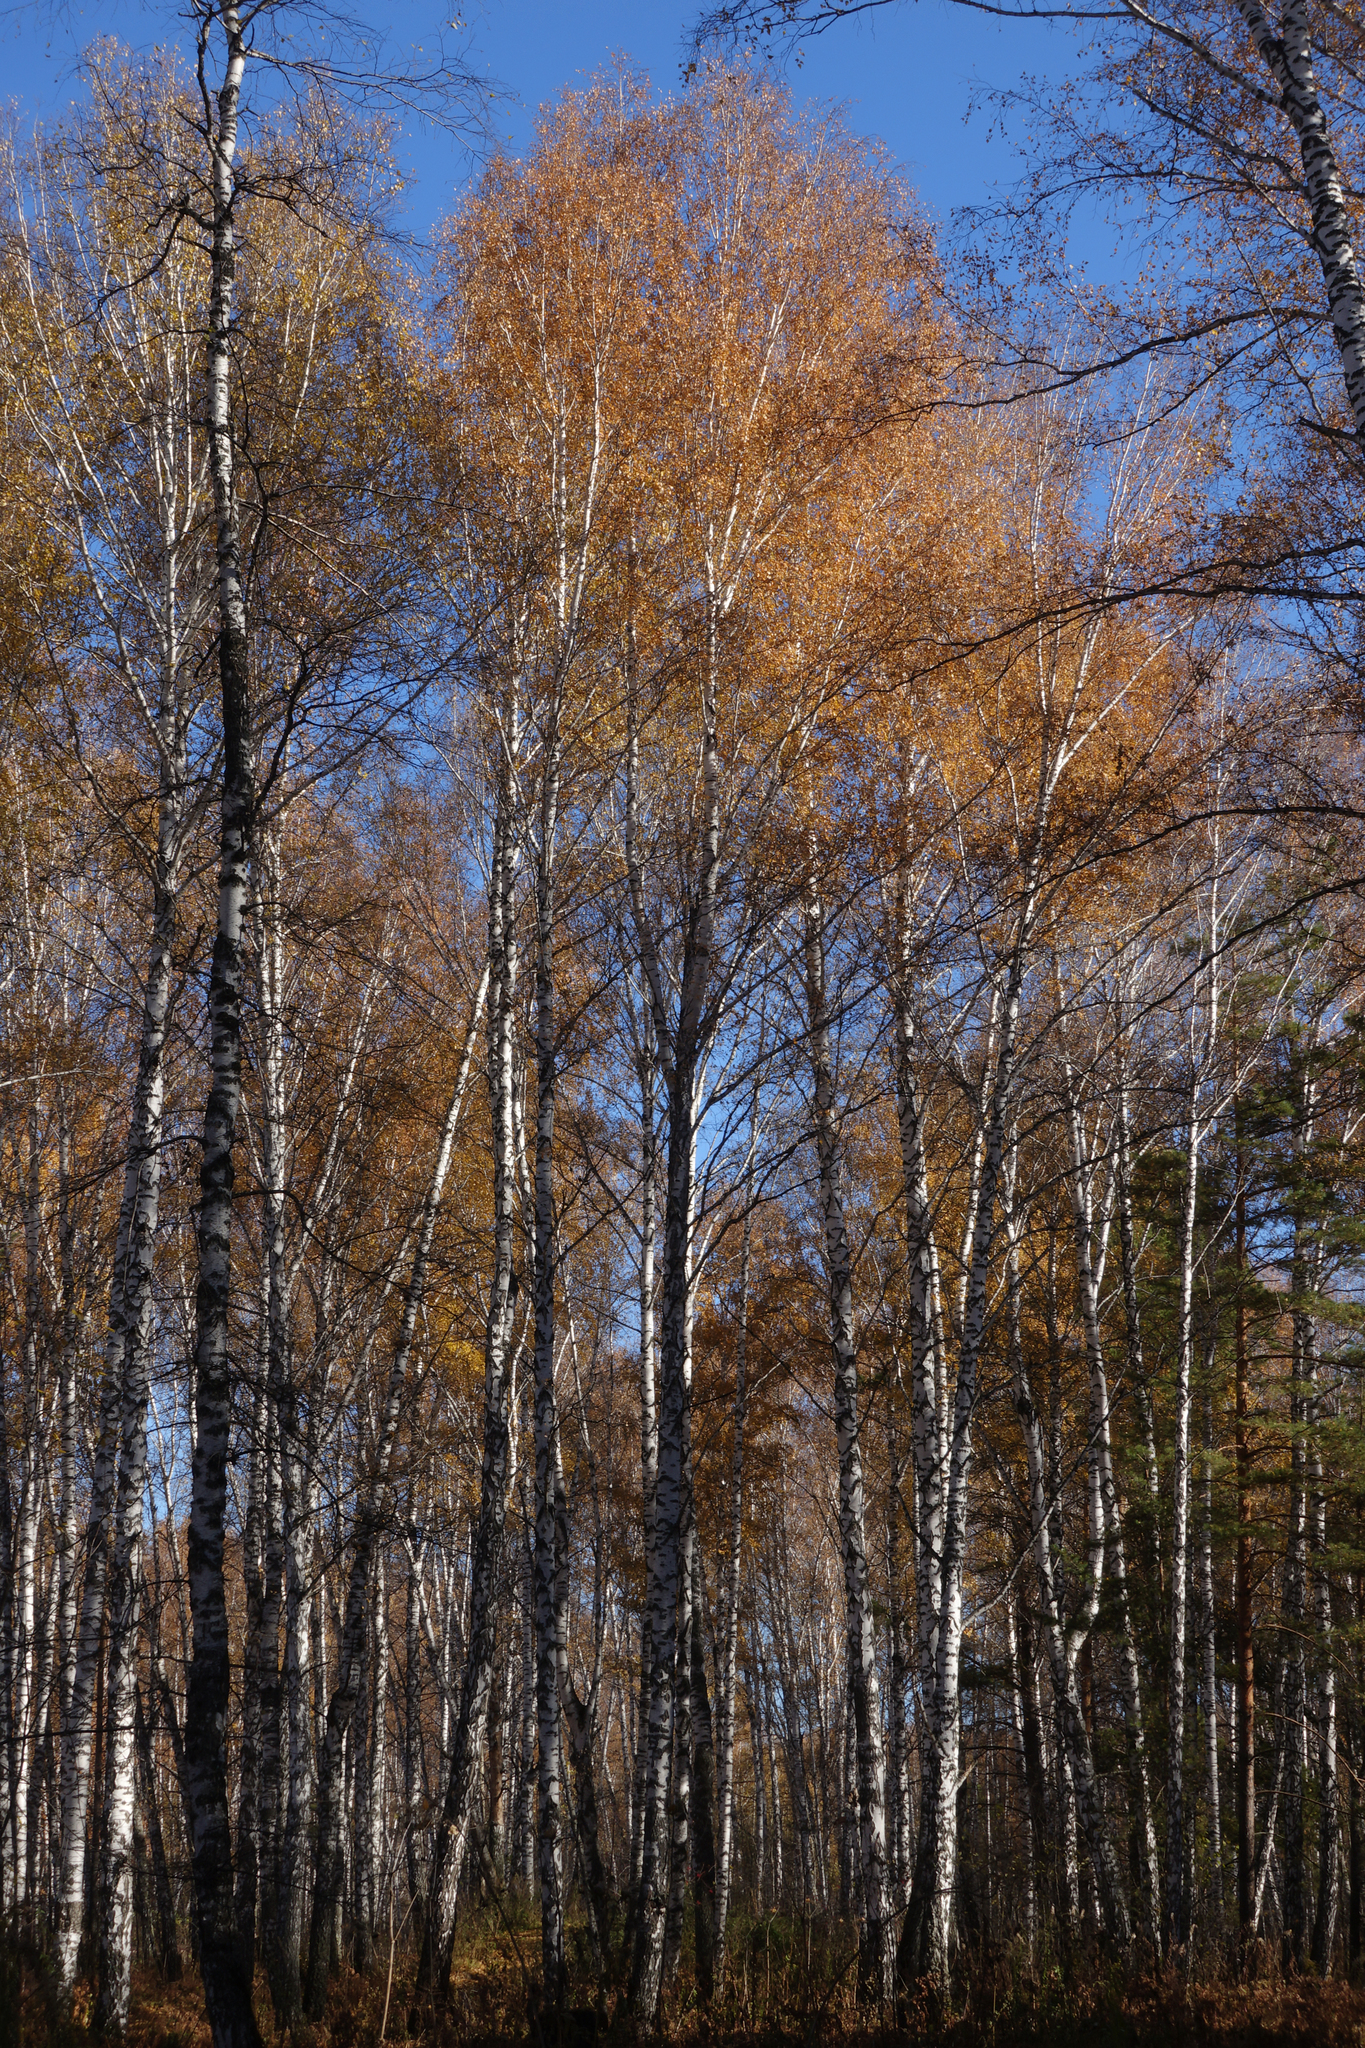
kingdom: Plantae
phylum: Tracheophyta
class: Magnoliopsida
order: Fagales
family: Betulaceae
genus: Betula
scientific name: Betula pendula
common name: Silver birch
